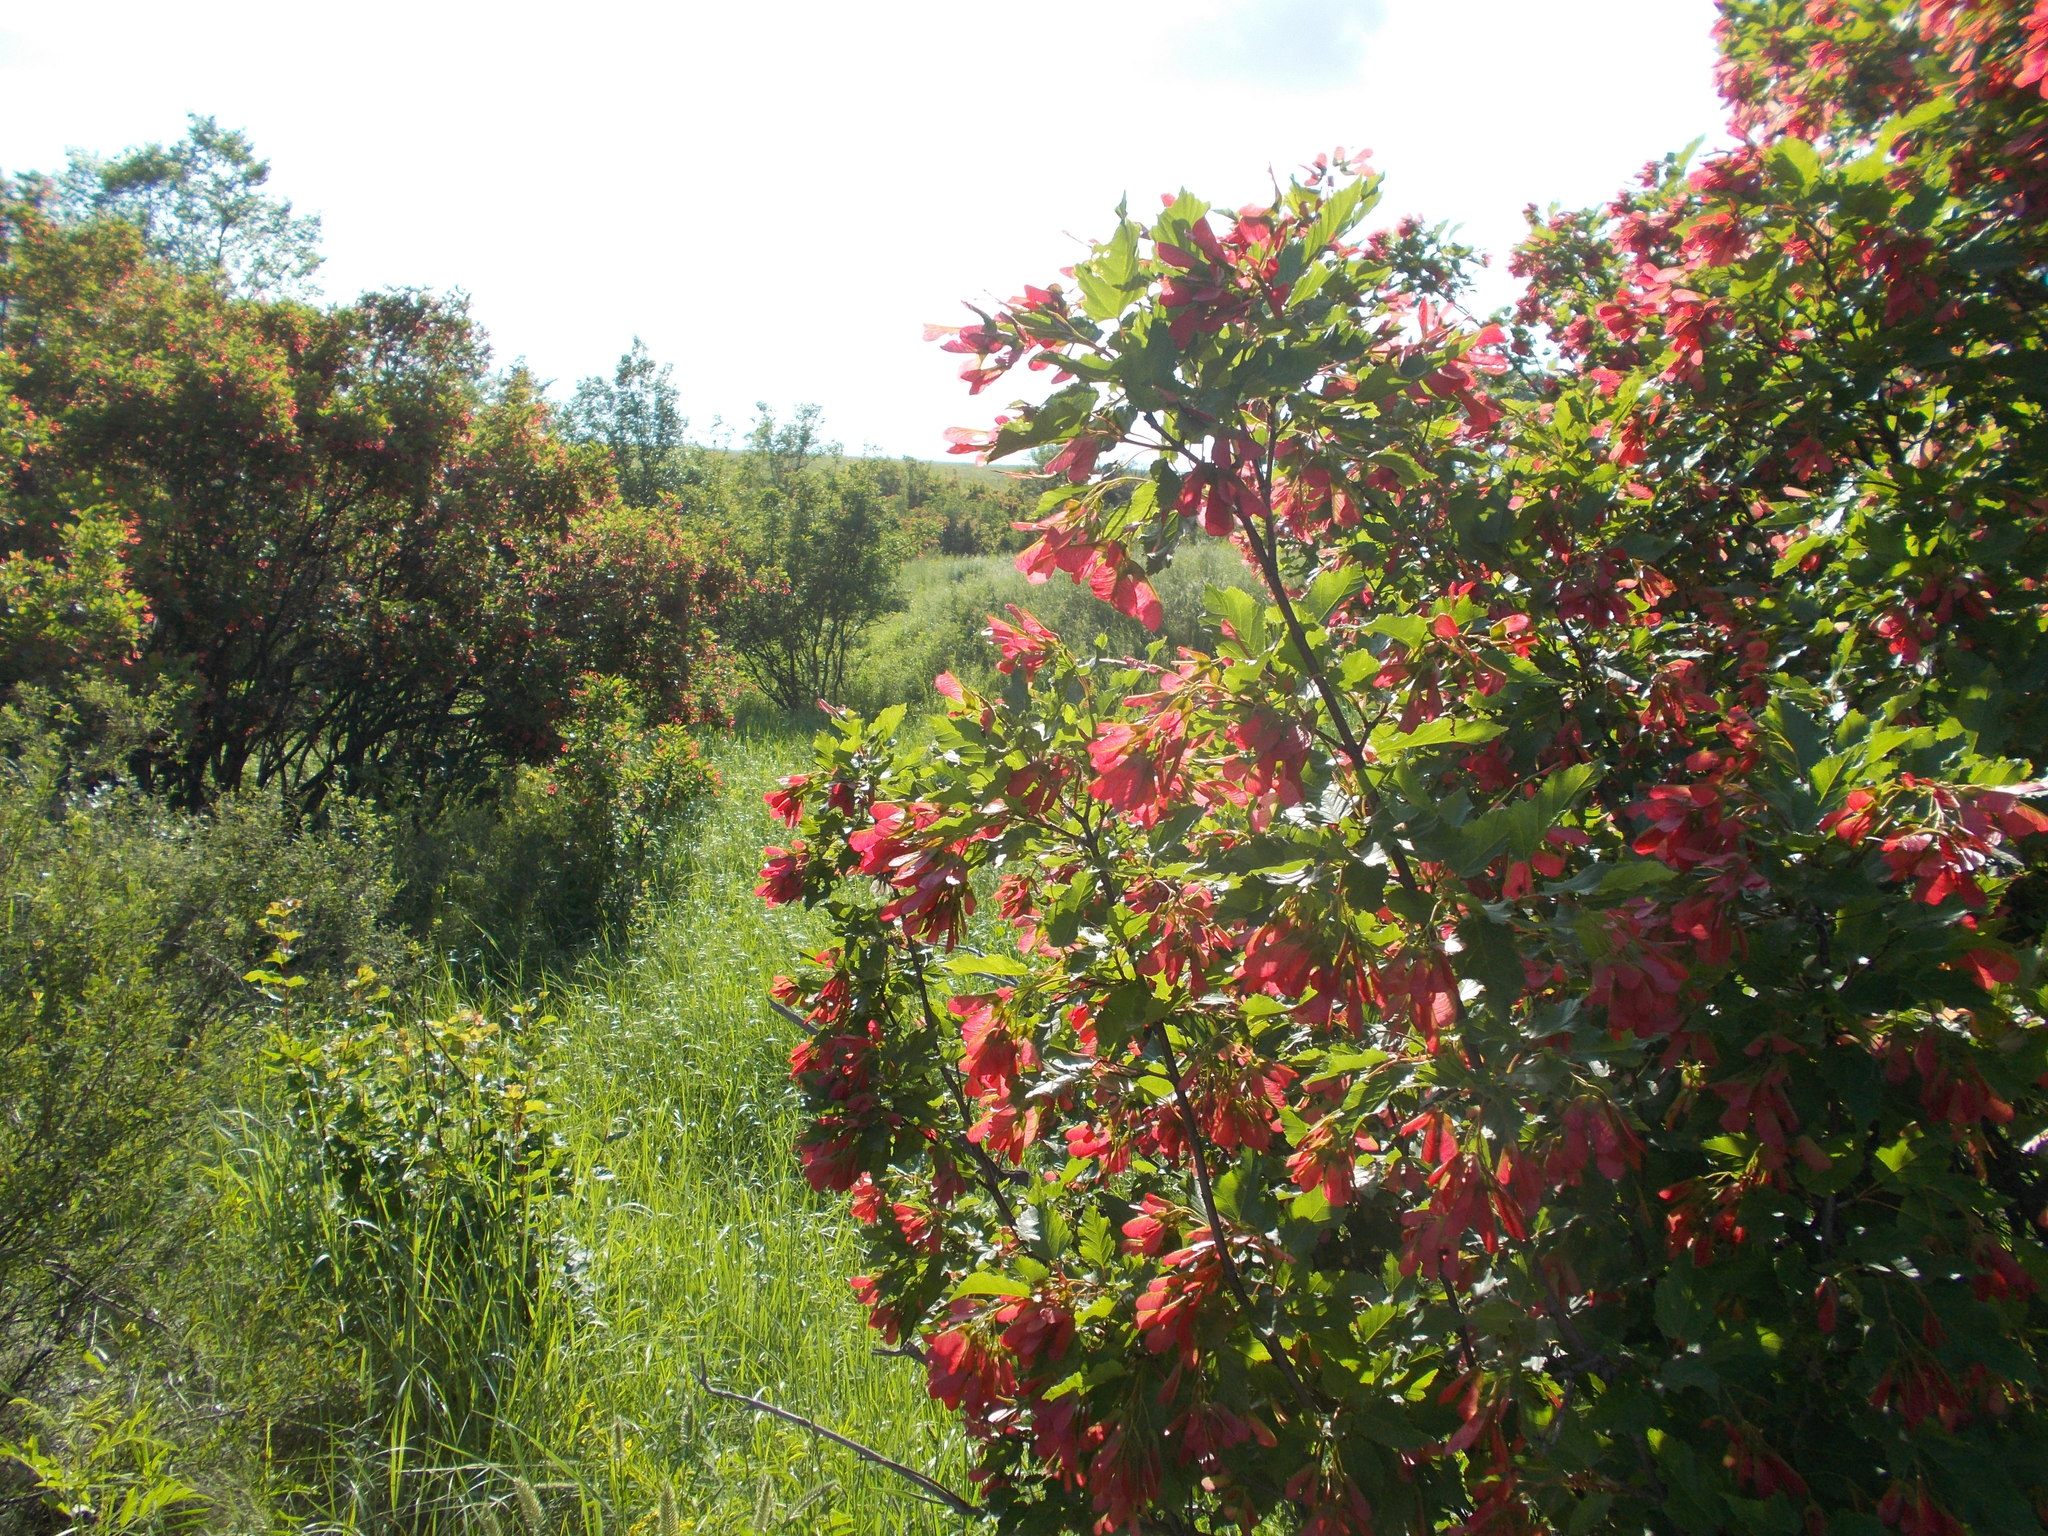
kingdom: Plantae
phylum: Tracheophyta
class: Magnoliopsida
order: Sapindales
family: Sapindaceae
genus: Acer
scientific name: Acer tataricum
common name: Tartar maple
